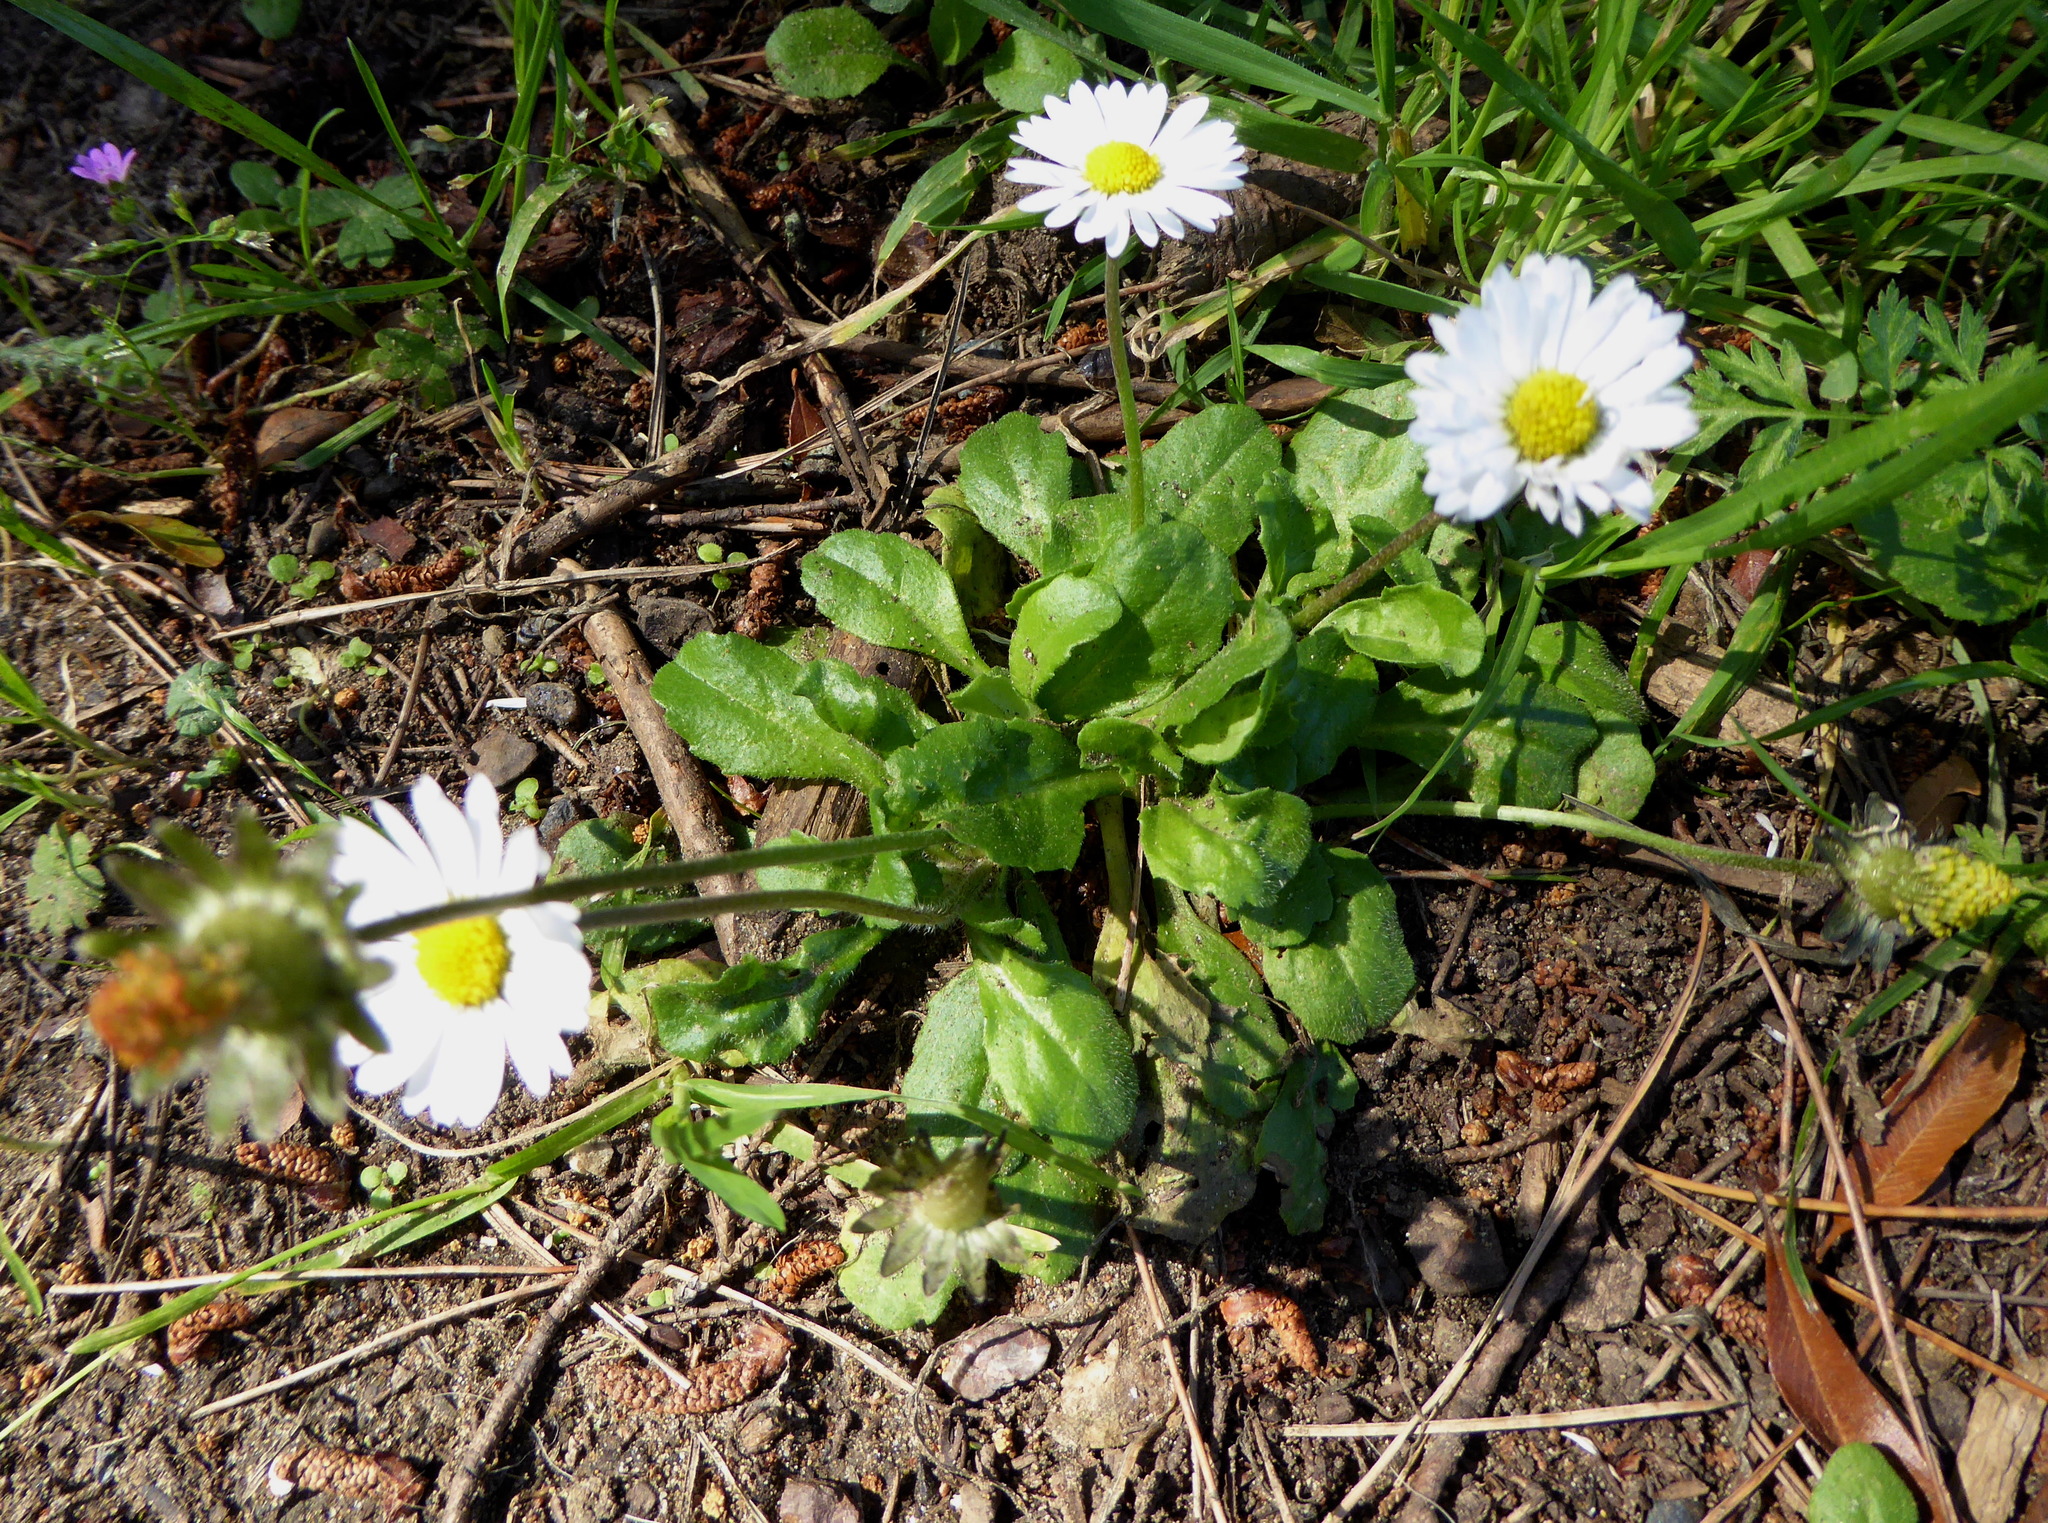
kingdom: Plantae
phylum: Tracheophyta
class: Magnoliopsida
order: Asterales
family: Asteraceae
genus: Bellis
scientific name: Bellis perennis
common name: Lawndaisy
